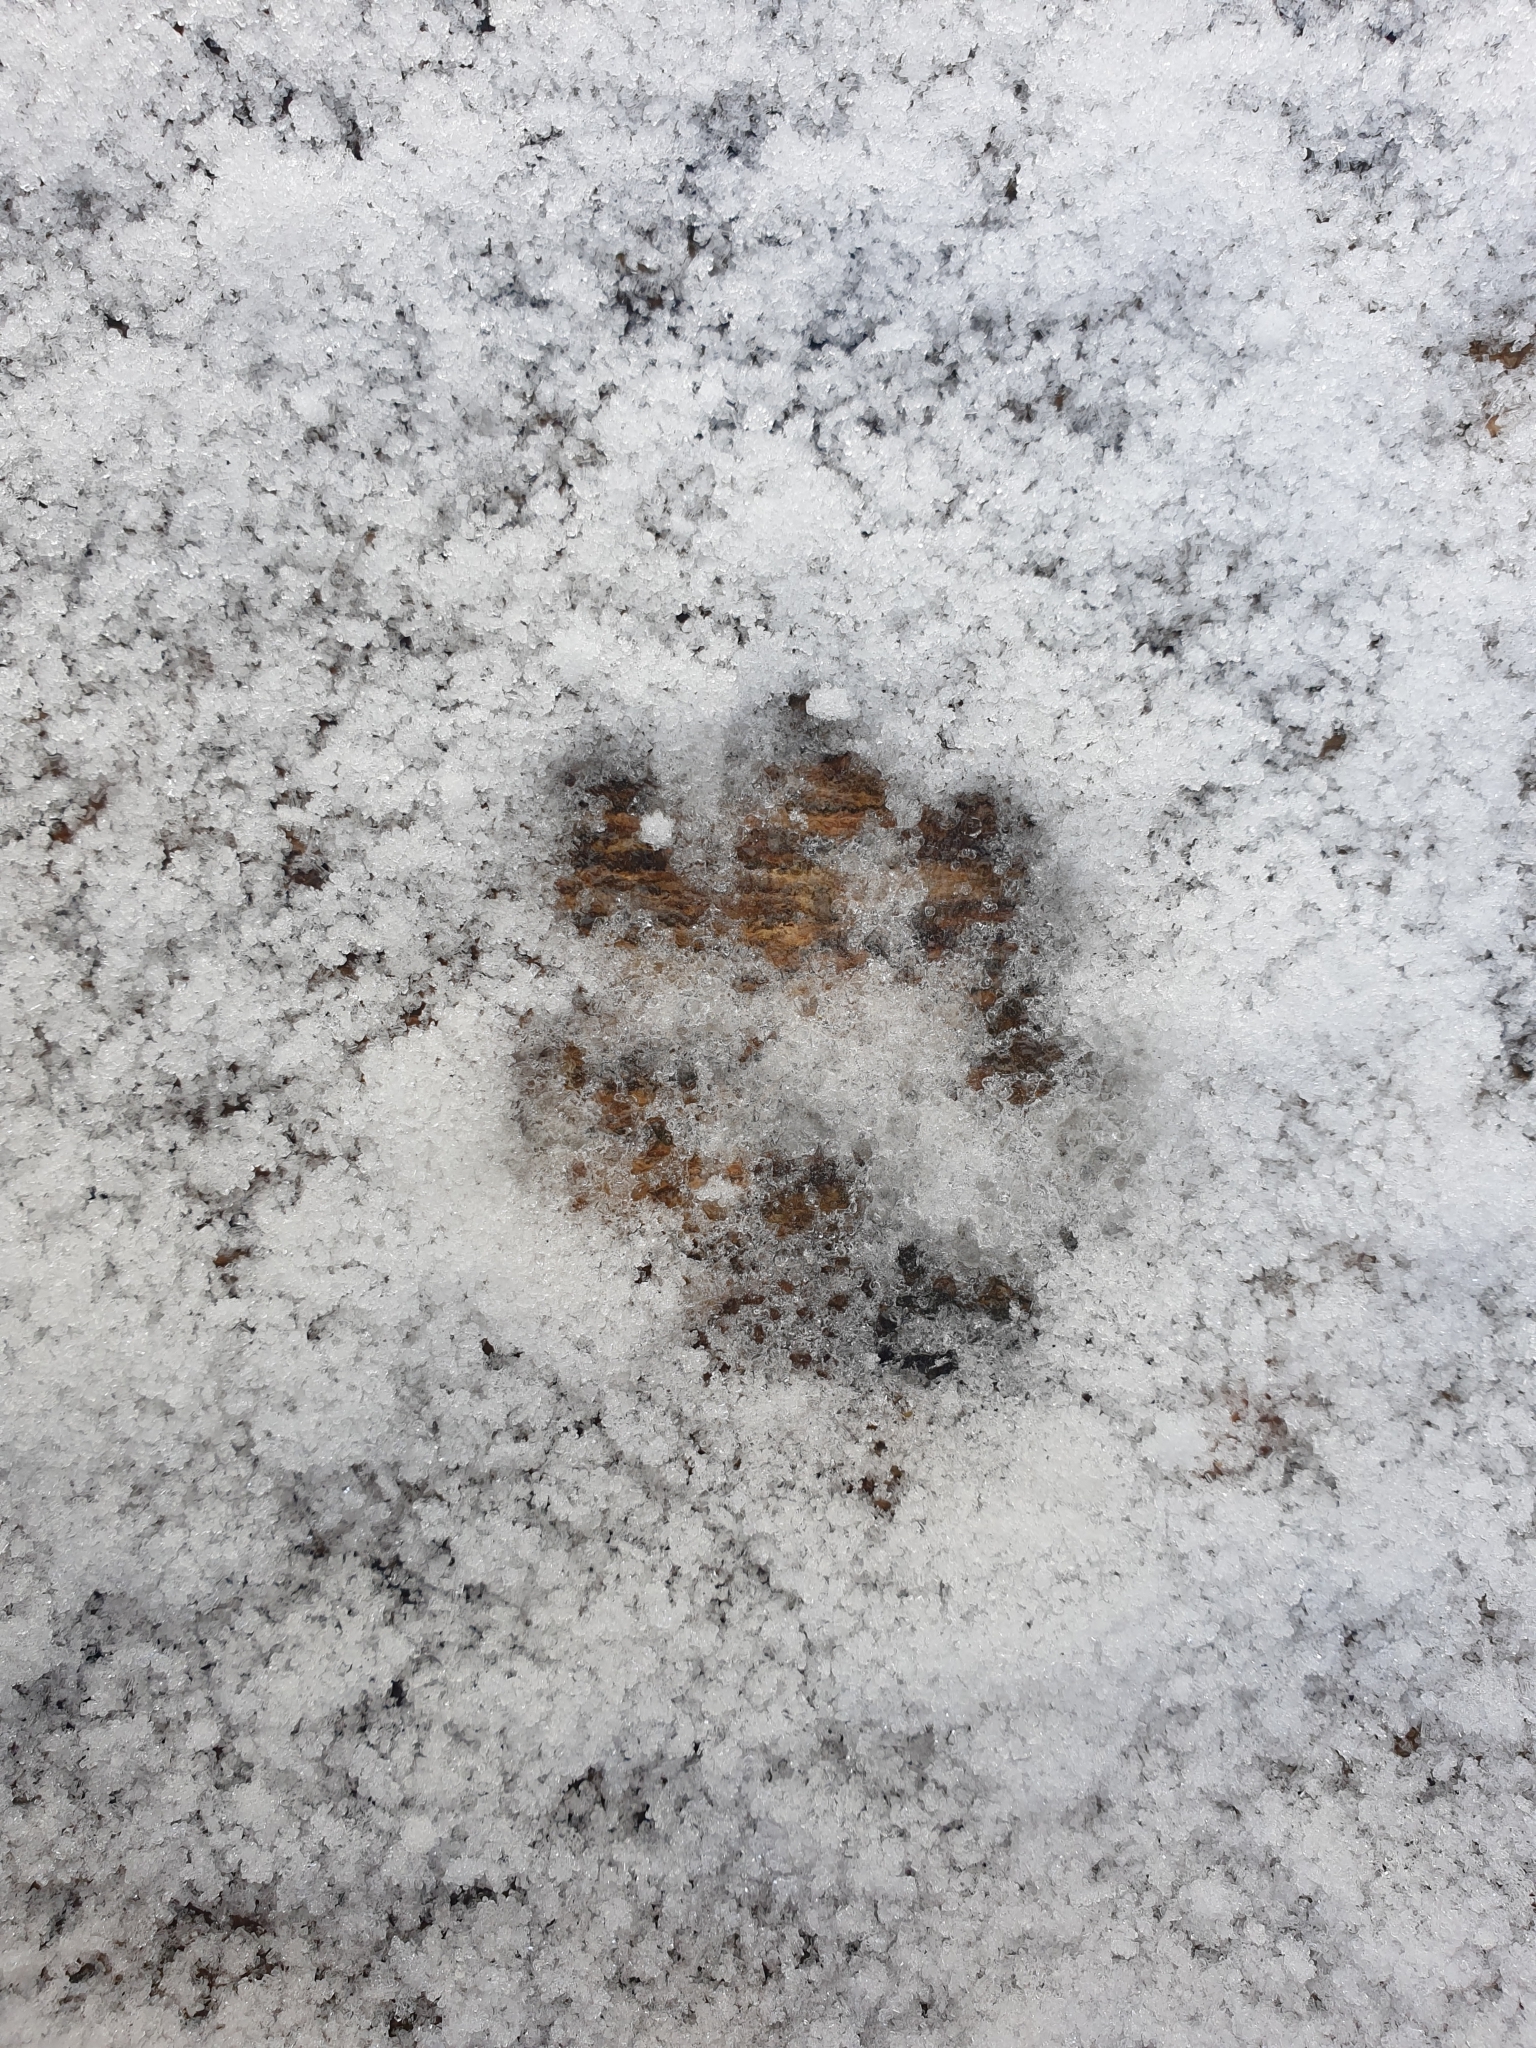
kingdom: Animalia
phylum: Chordata
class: Mammalia
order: Carnivora
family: Felidae
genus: Felis
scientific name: Felis catus
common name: Domestic cat
